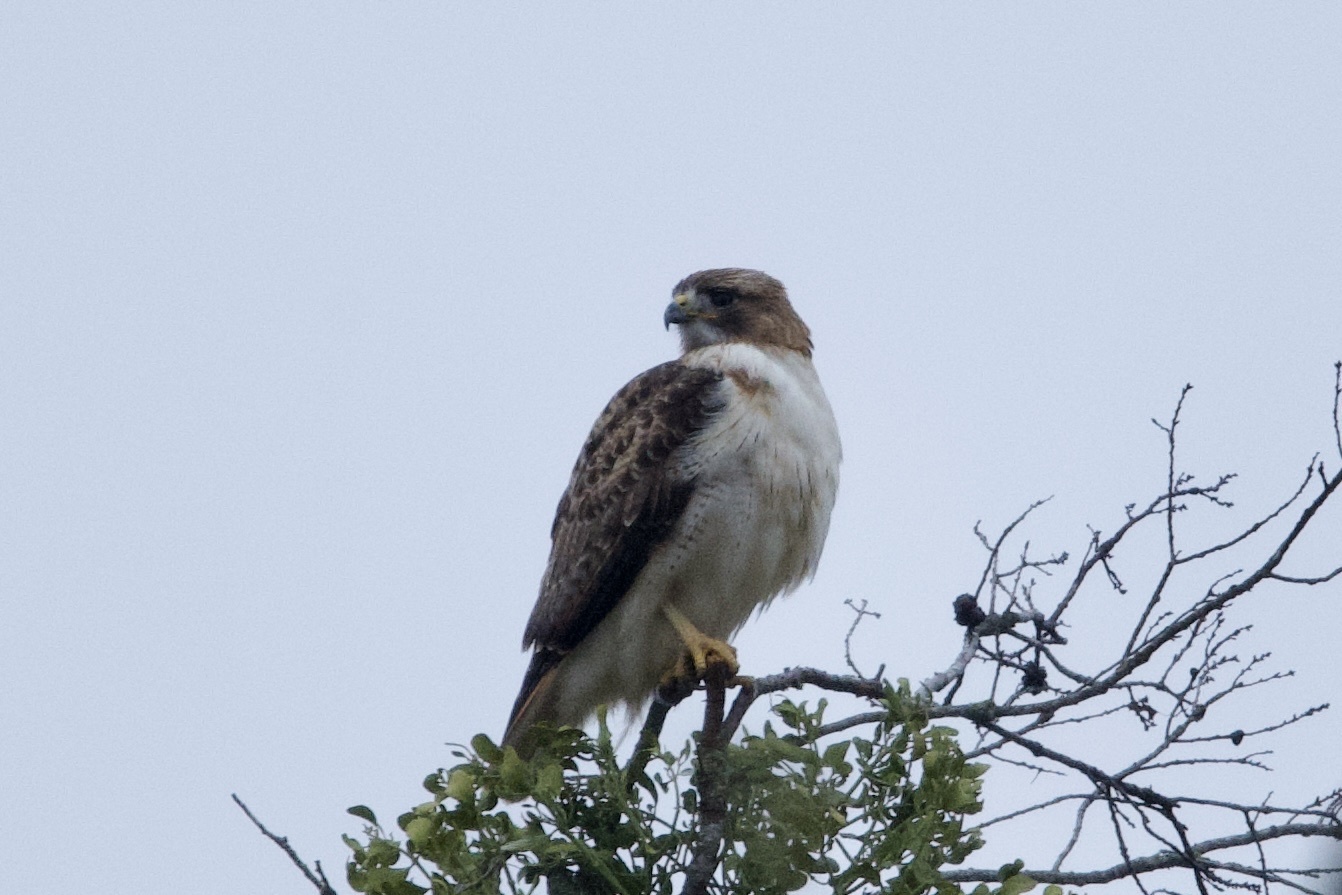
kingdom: Animalia
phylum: Chordata
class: Aves
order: Accipitriformes
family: Accipitridae
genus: Buteo
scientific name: Buteo jamaicensis
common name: Red-tailed hawk
